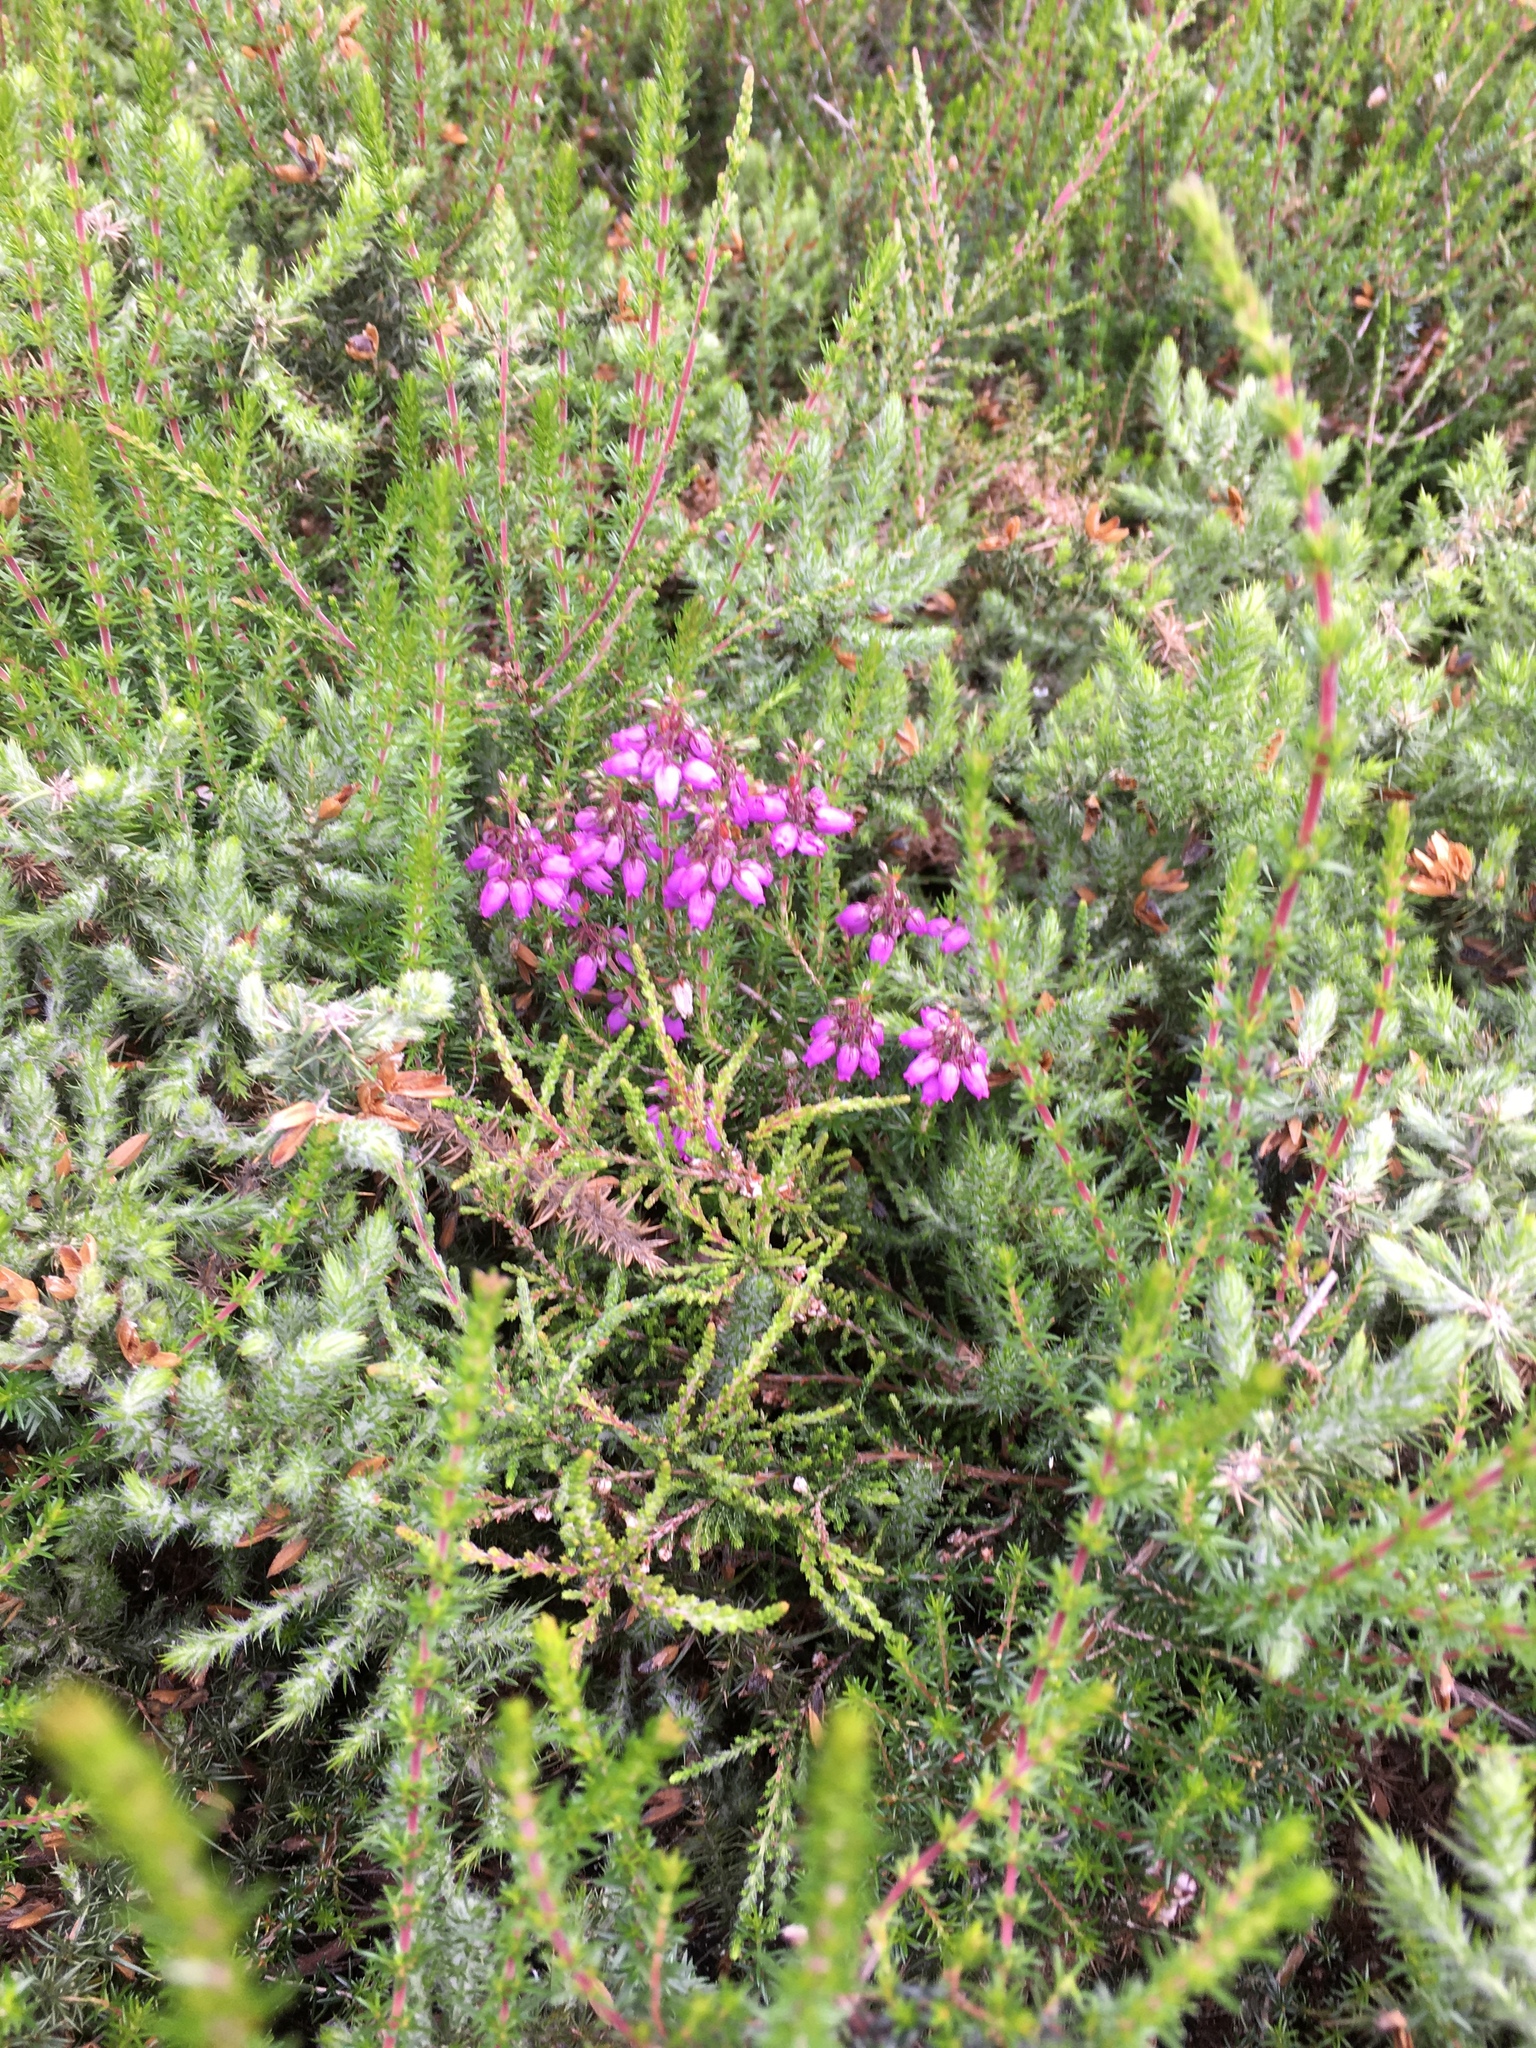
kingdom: Plantae
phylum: Tracheophyta
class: Magnoliopsida
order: Ericales
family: Ericaceae
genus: Erica
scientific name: Erica cinerea
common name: Bell heather
